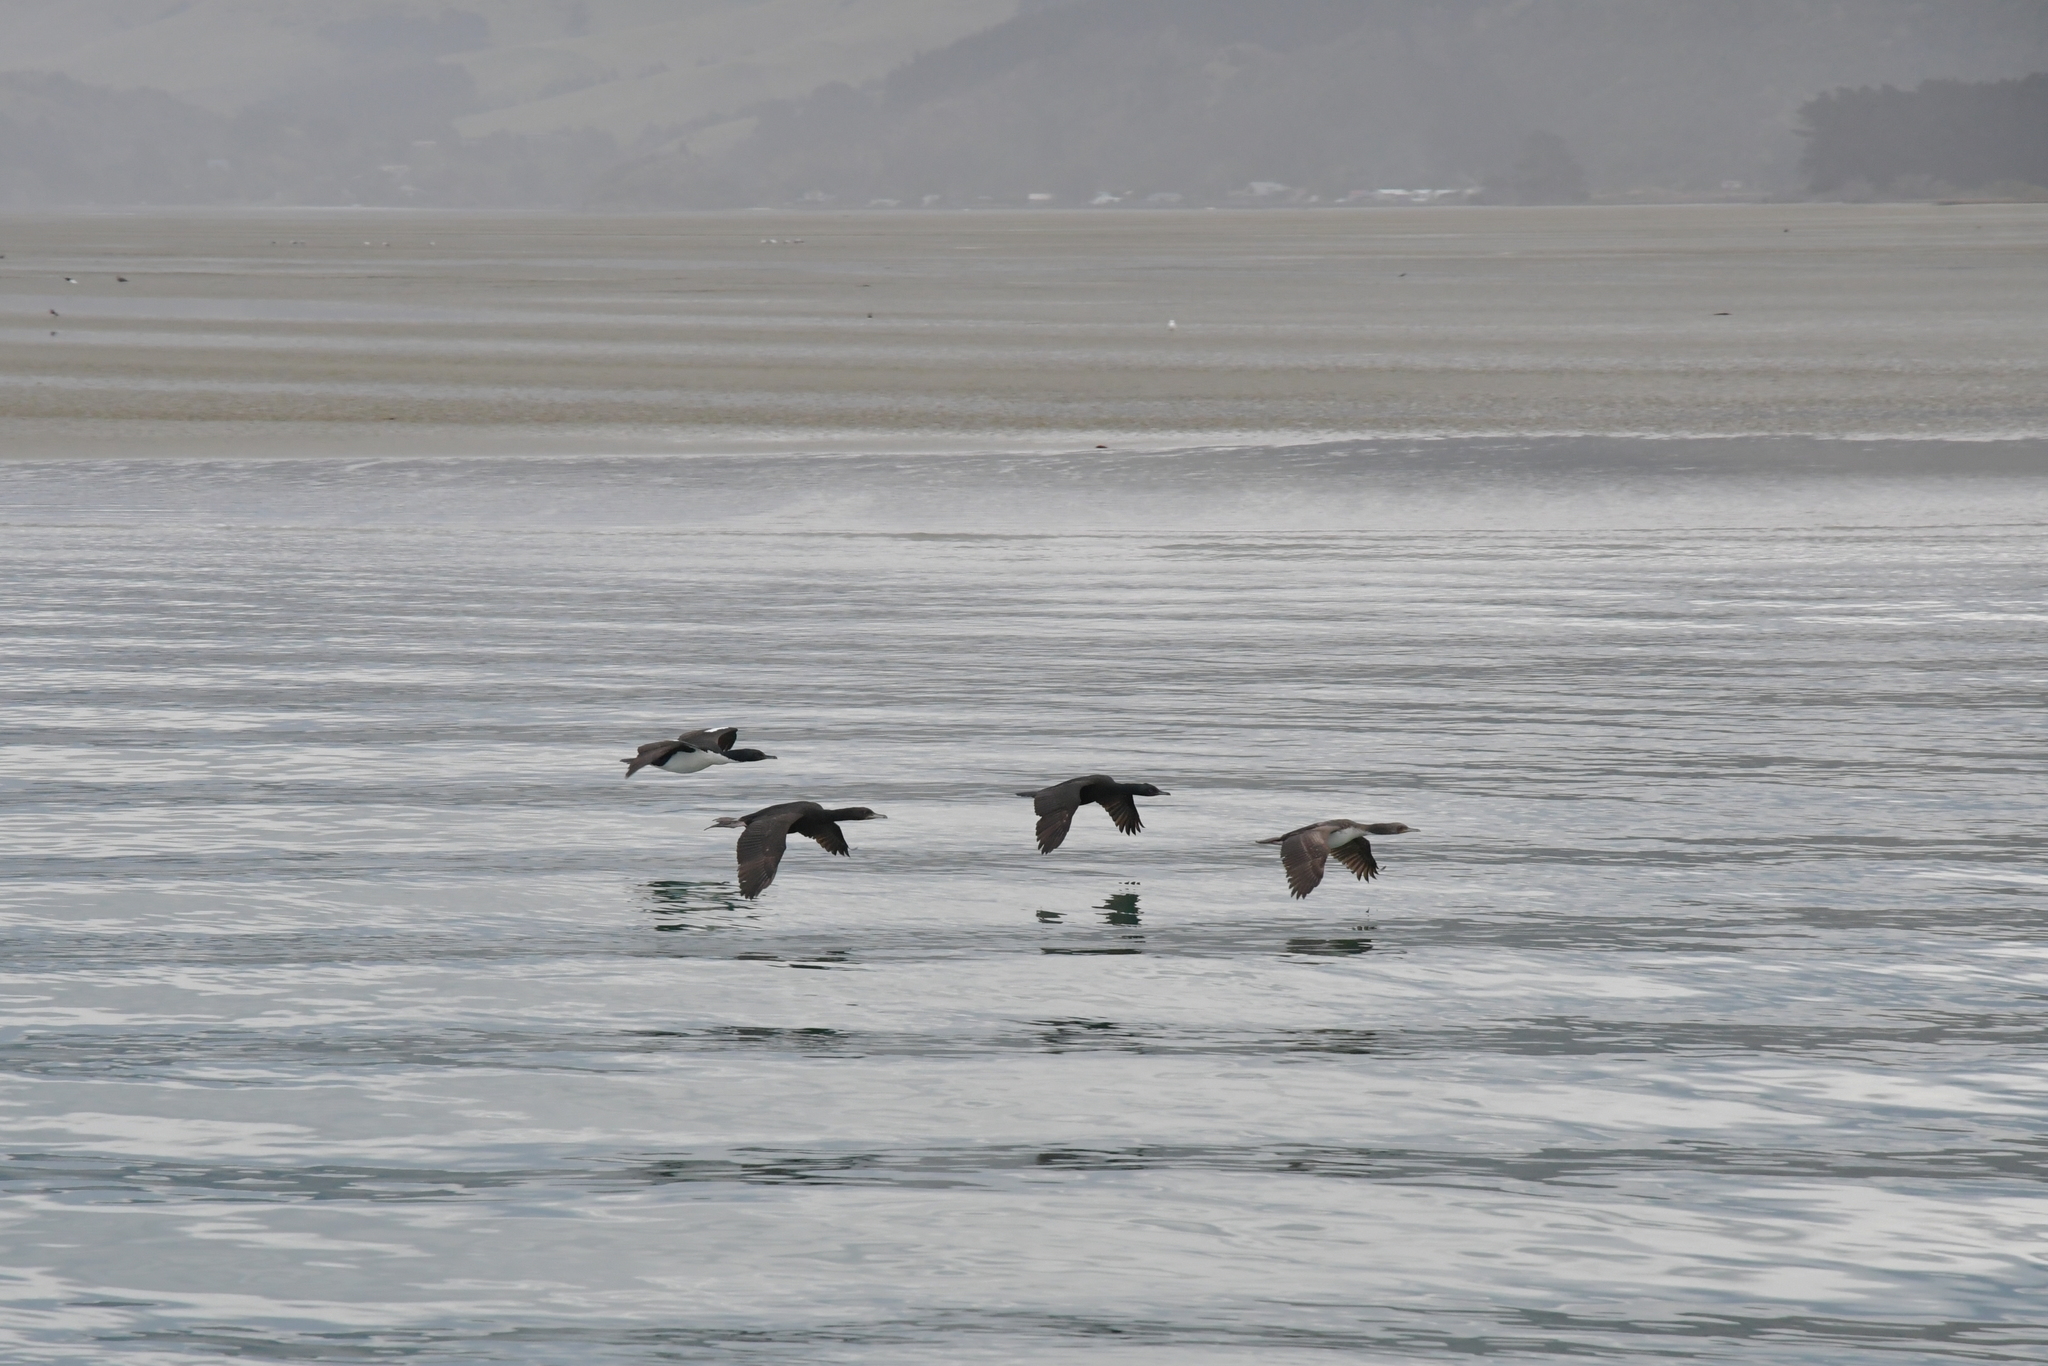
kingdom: Animalia
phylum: Chordata
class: Aves
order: Suliformes
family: Phalacrocoracidae
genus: Leucocarbo
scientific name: Leucocarbo chalconotus
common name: Stewart shag
